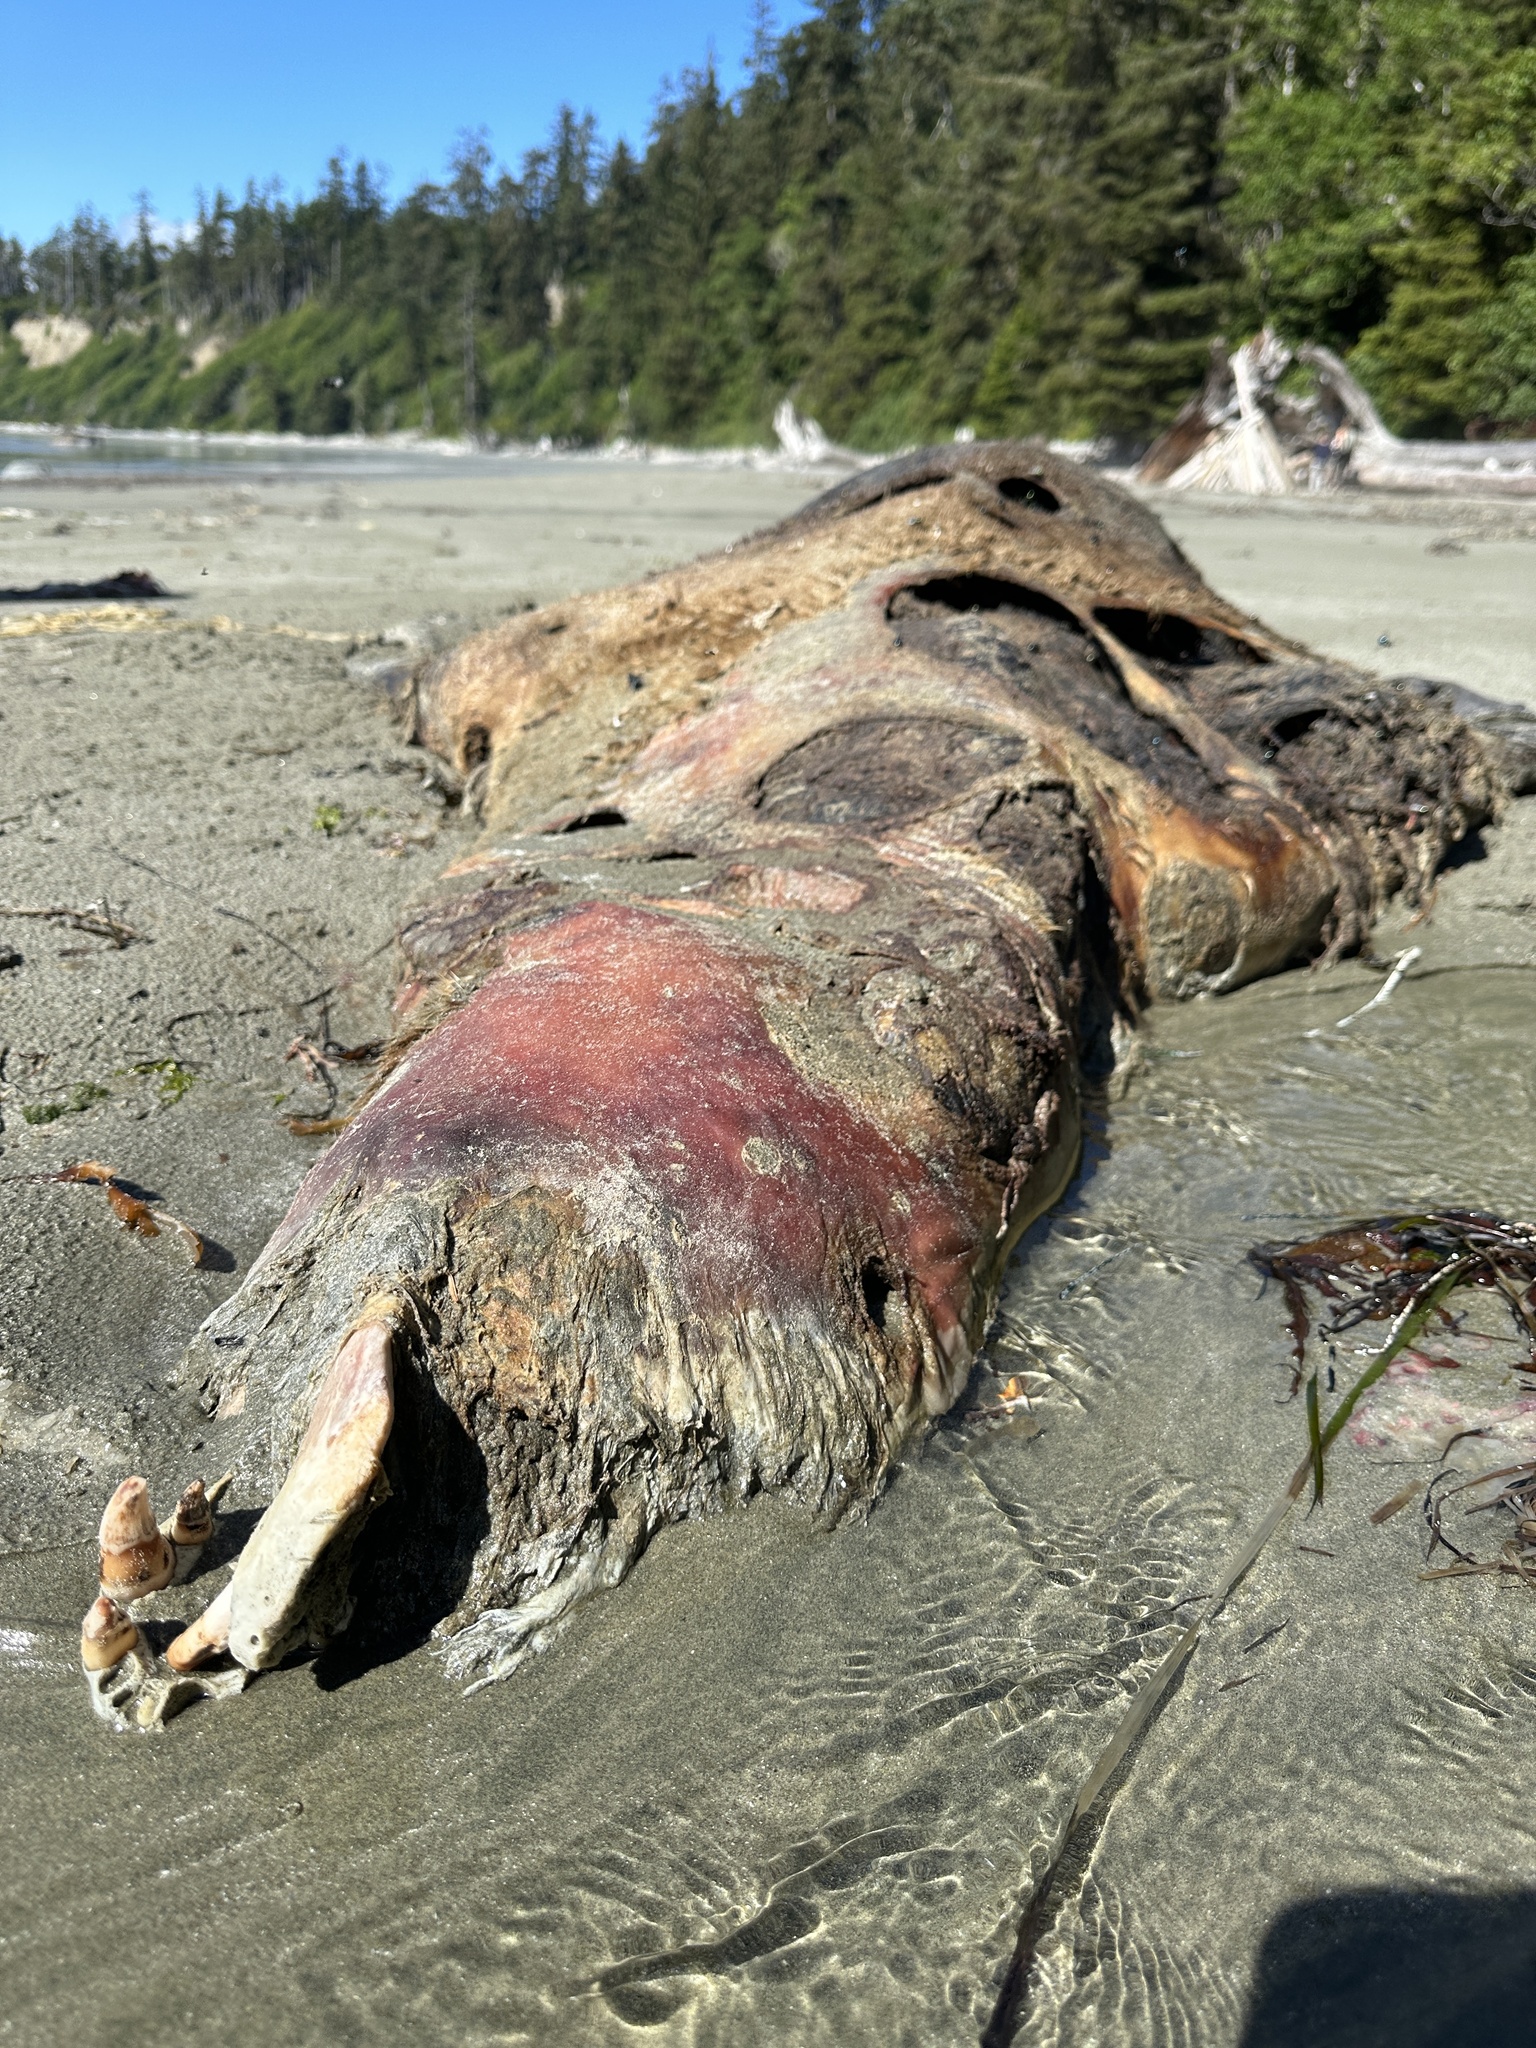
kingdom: Animalia
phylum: Chordata
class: Mammalia
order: Carnivora
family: Otariidae
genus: Eumetopias
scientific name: Eumetopias jubatus
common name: Steller sea lion
